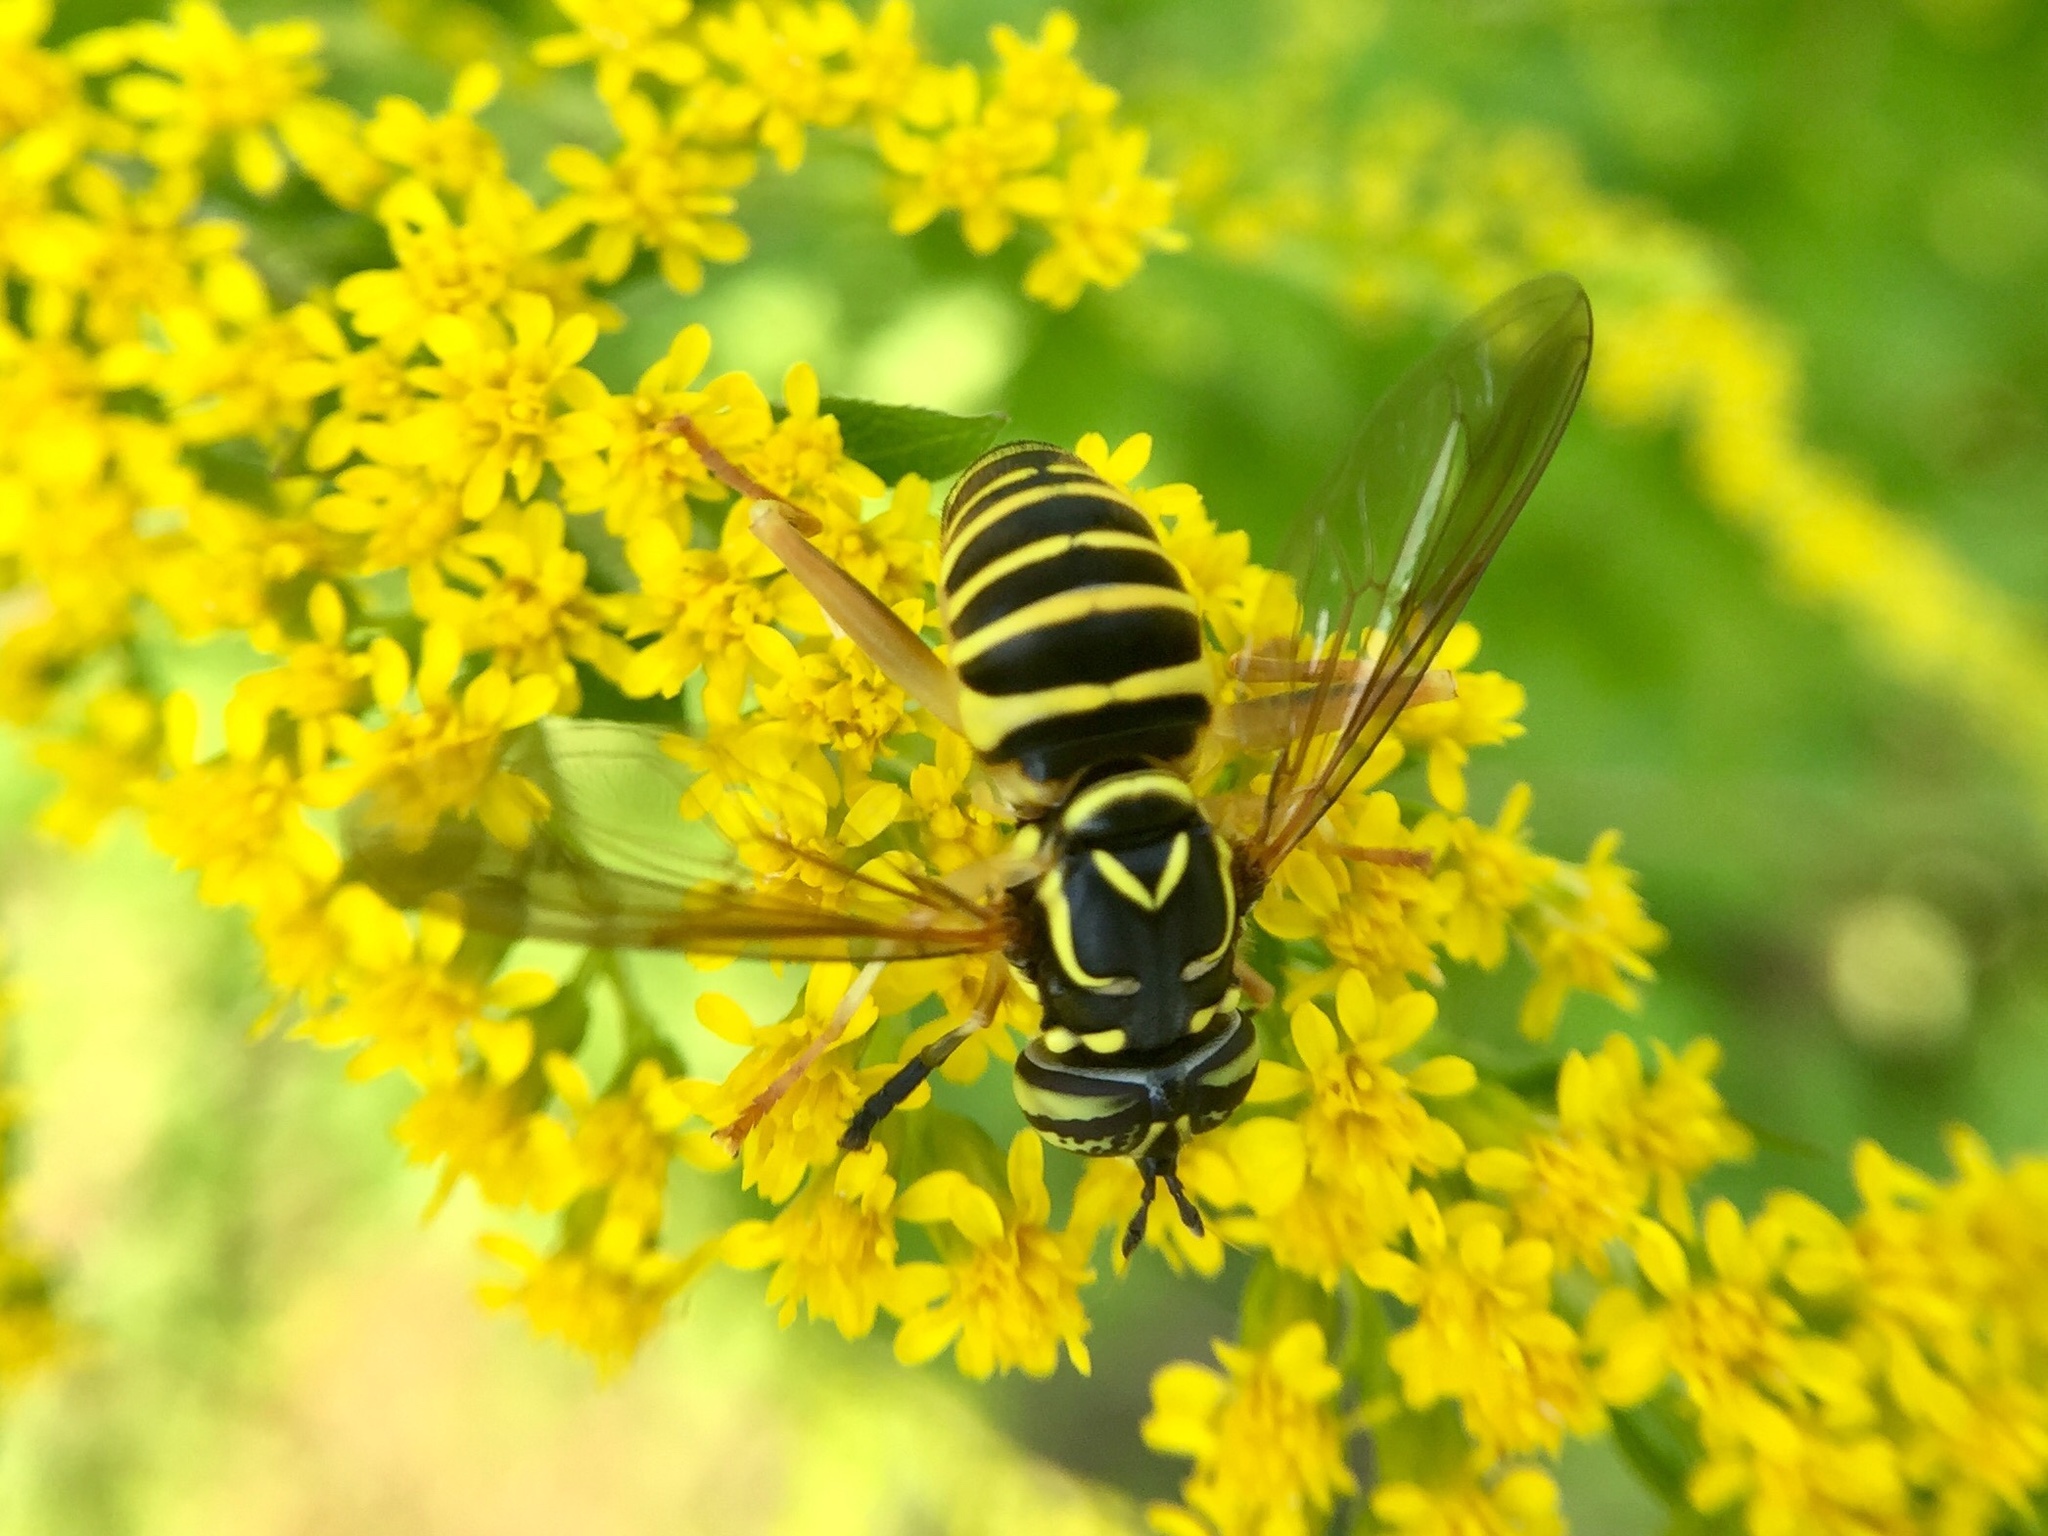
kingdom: Animalia
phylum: Arthropoda
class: Insecta
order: Diptera
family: Syrphidae
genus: Spilomyia
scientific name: Spilomyia longicornis
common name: Eastern hornet fly
